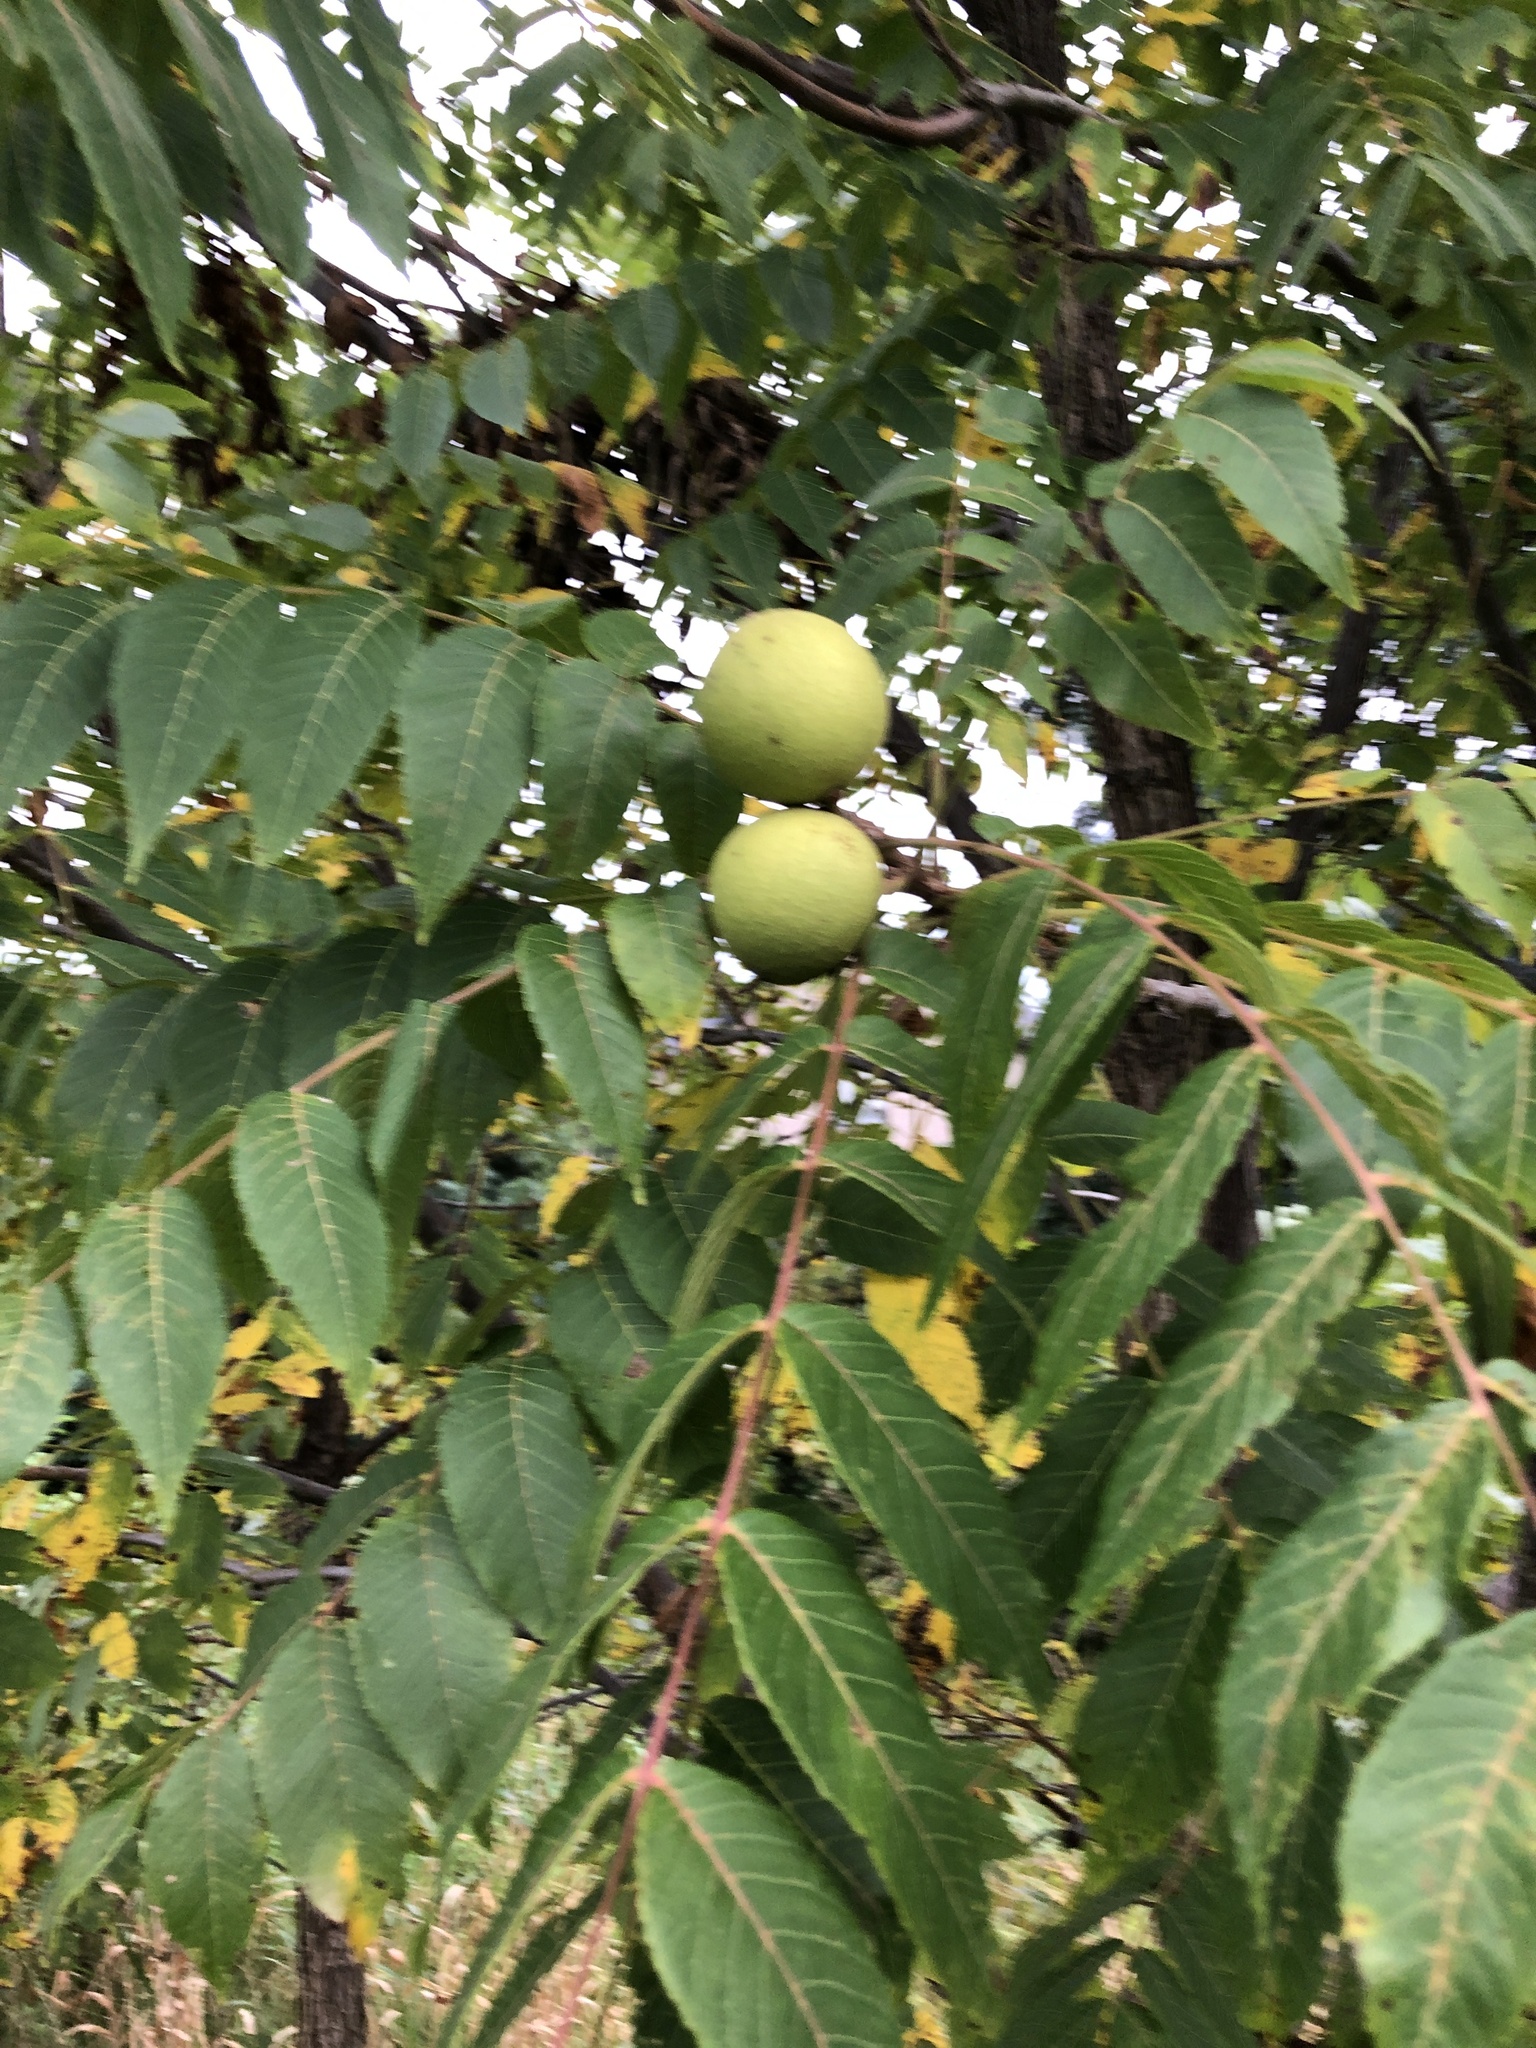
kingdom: Plantae
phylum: Tracheophyta
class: Magnoliopsida
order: Fagales
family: Juglandaceae
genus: Juglans
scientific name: Juglans nigra
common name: Black walnut
